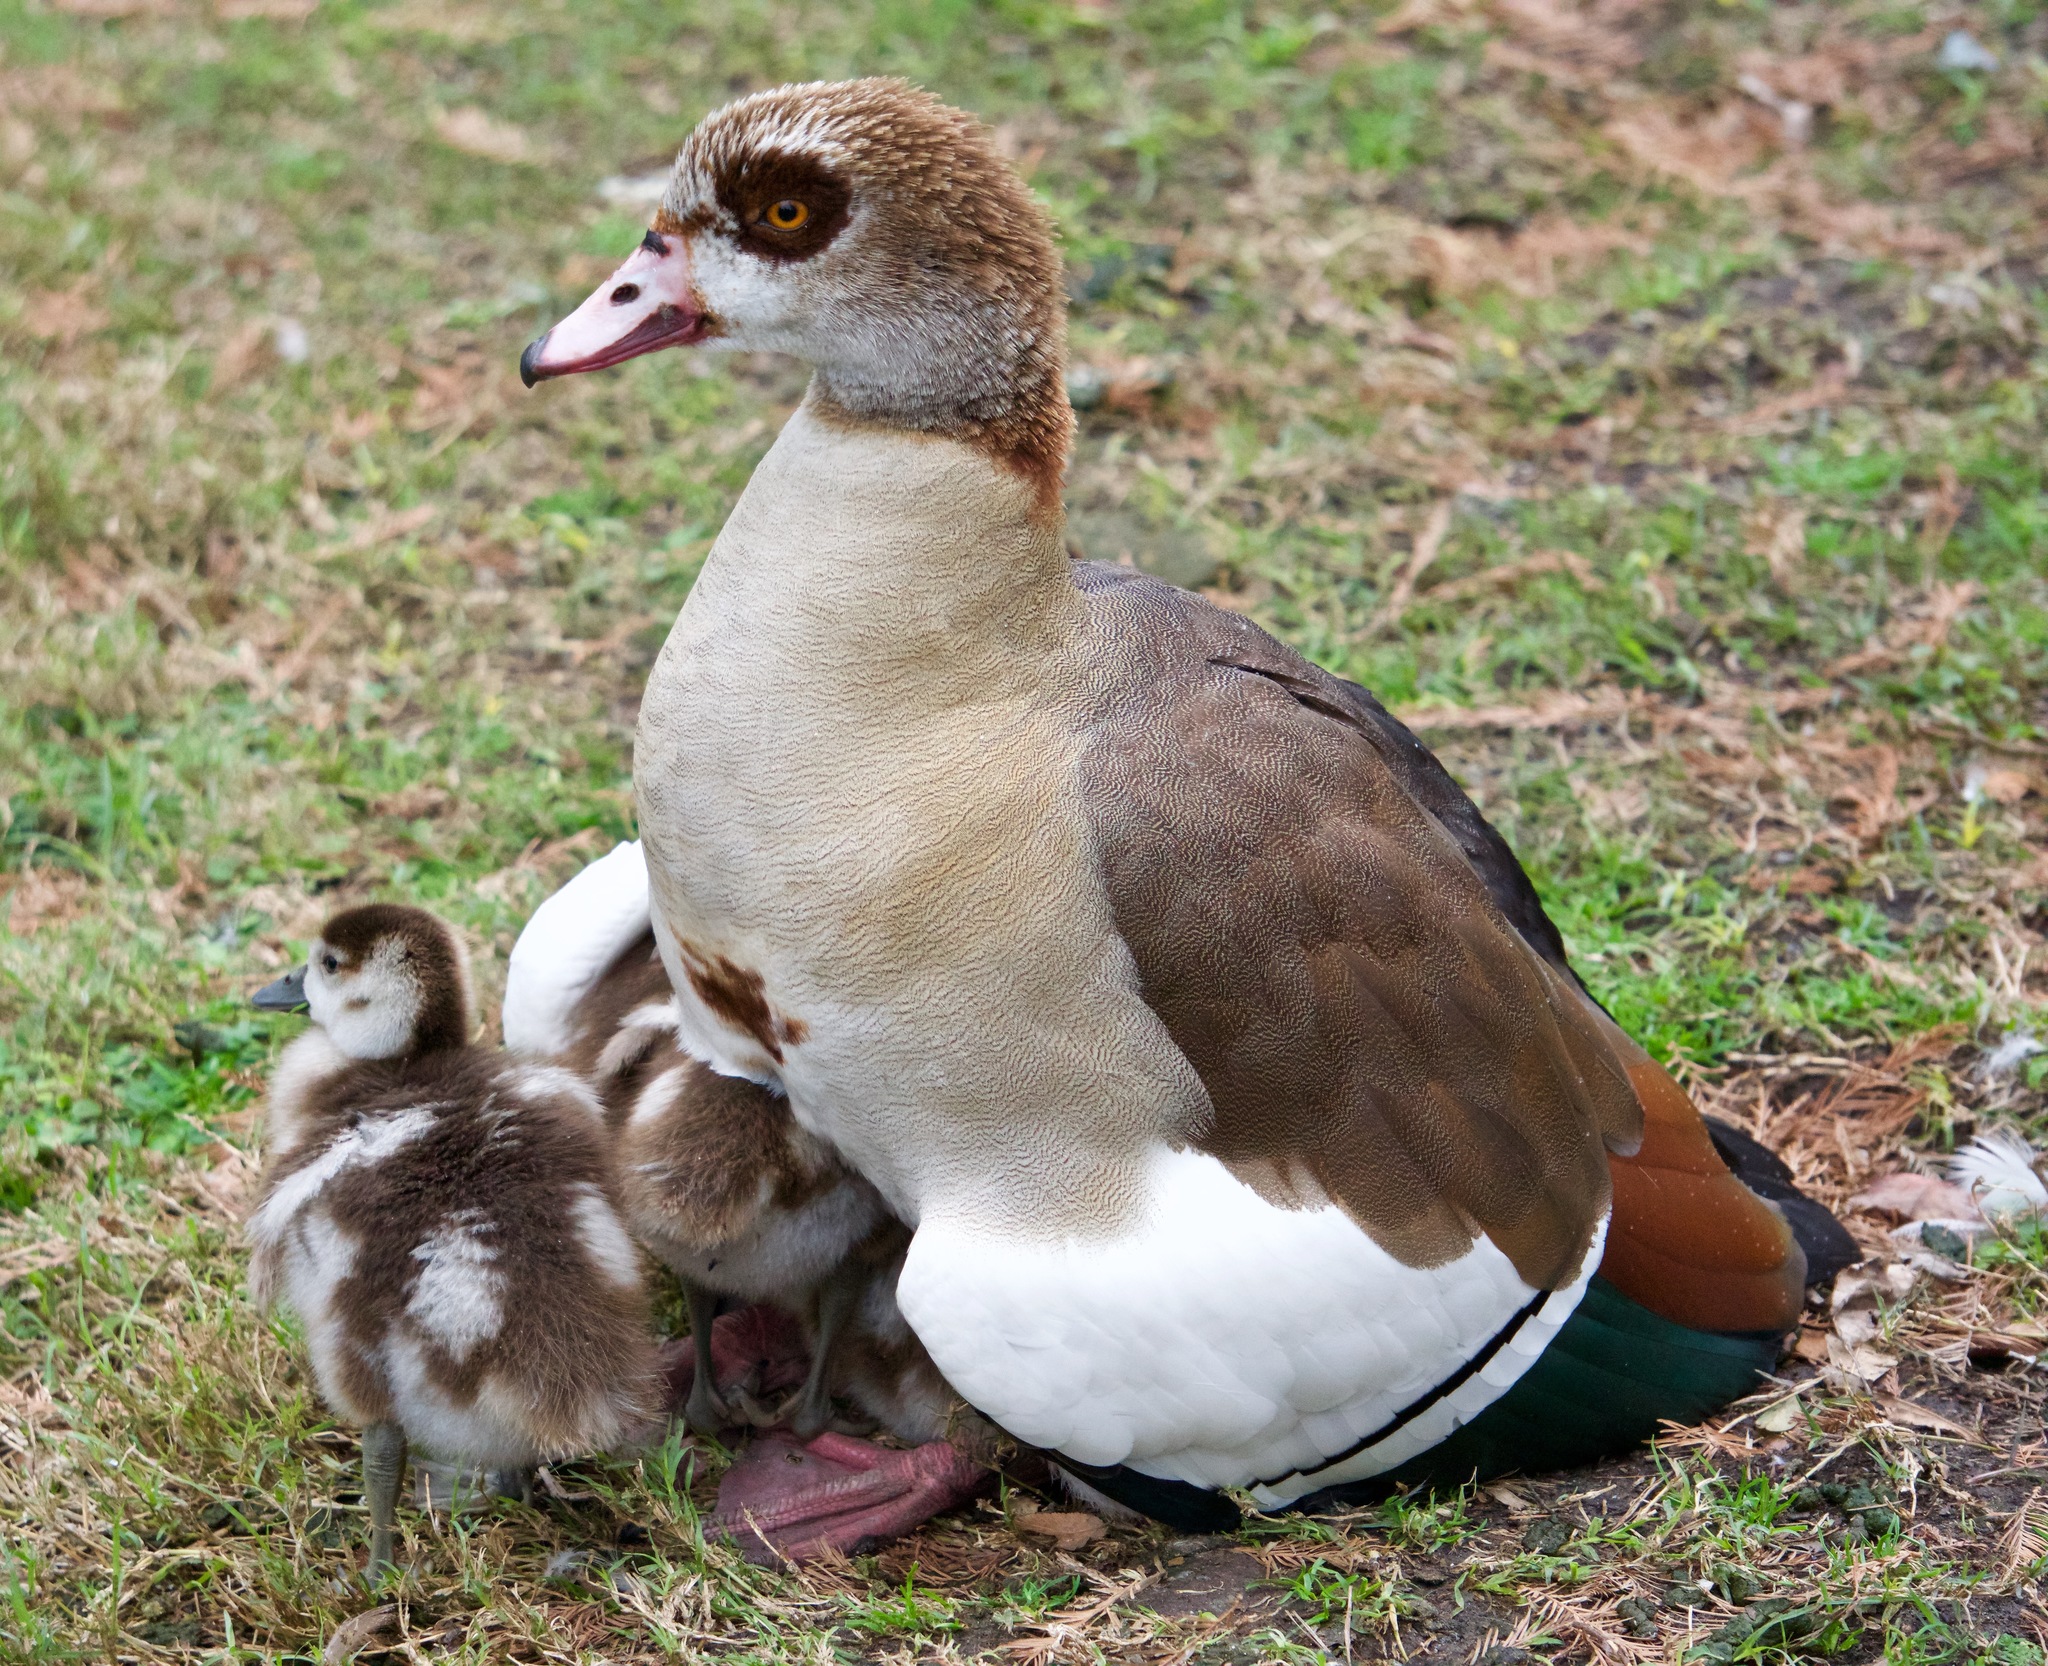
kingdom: Animalia
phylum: Chordata
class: Aves
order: Anseriformes
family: Anatidae
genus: Alopochen
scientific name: Alopochen aegyptiaca
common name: Egyptian goose
